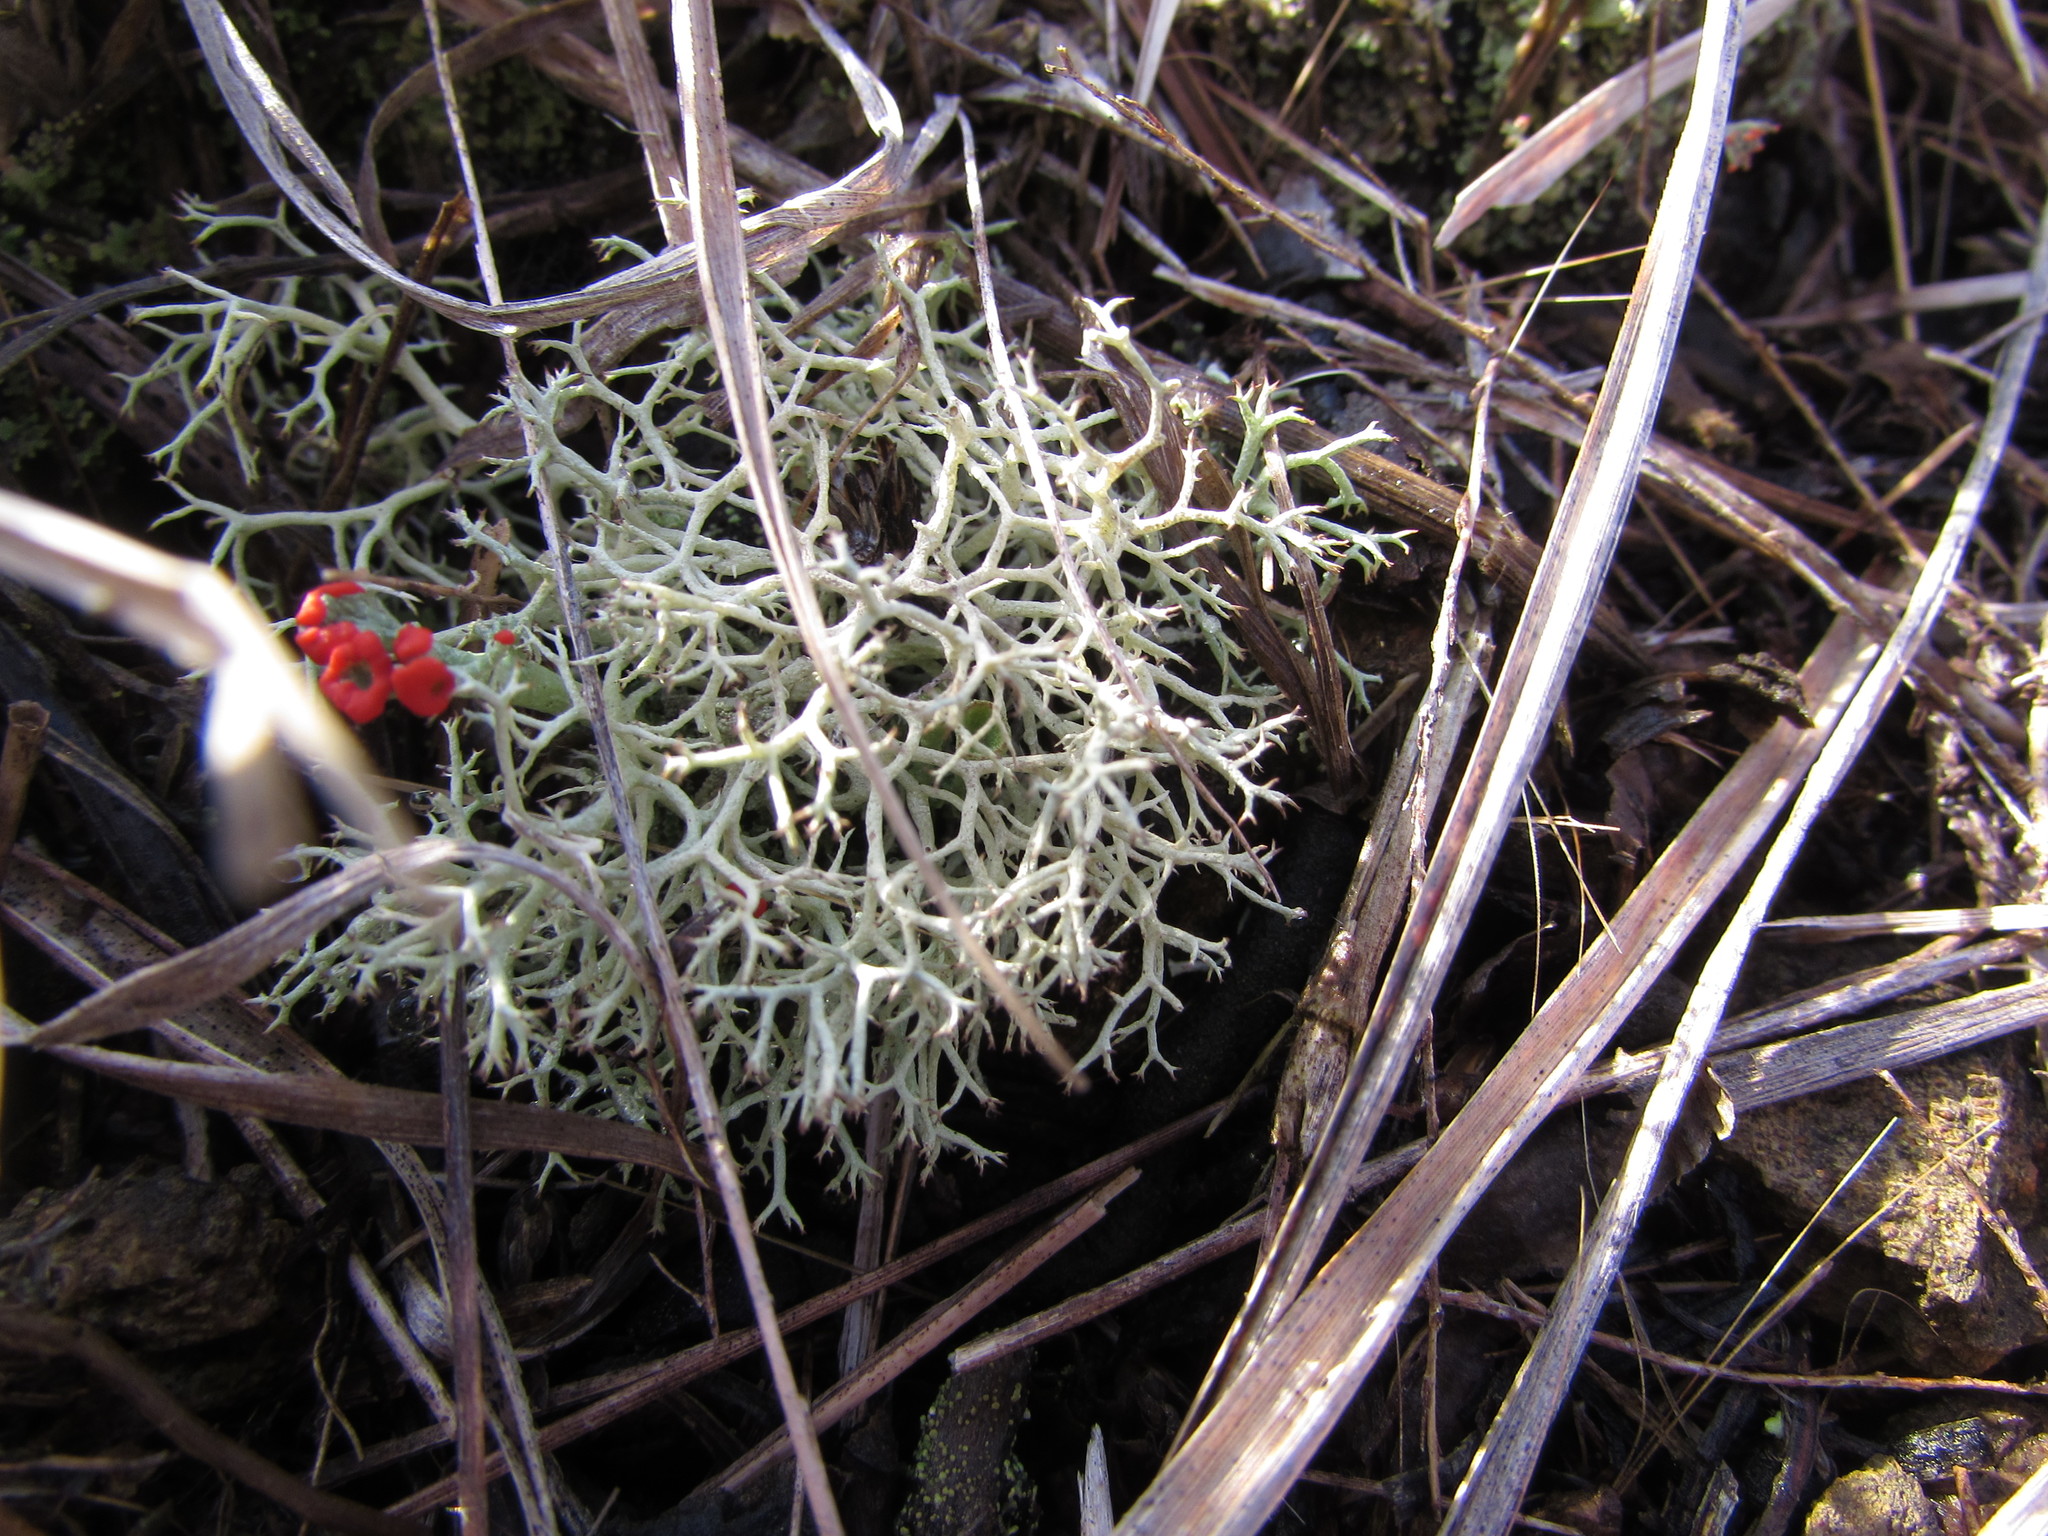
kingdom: Fungi
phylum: Ascomycota
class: Lecanoromycetes
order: Lecanorales
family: Cladoniaceae
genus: Cladonia
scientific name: Cladonia subtenuis
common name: Dixie reindeer lichen
